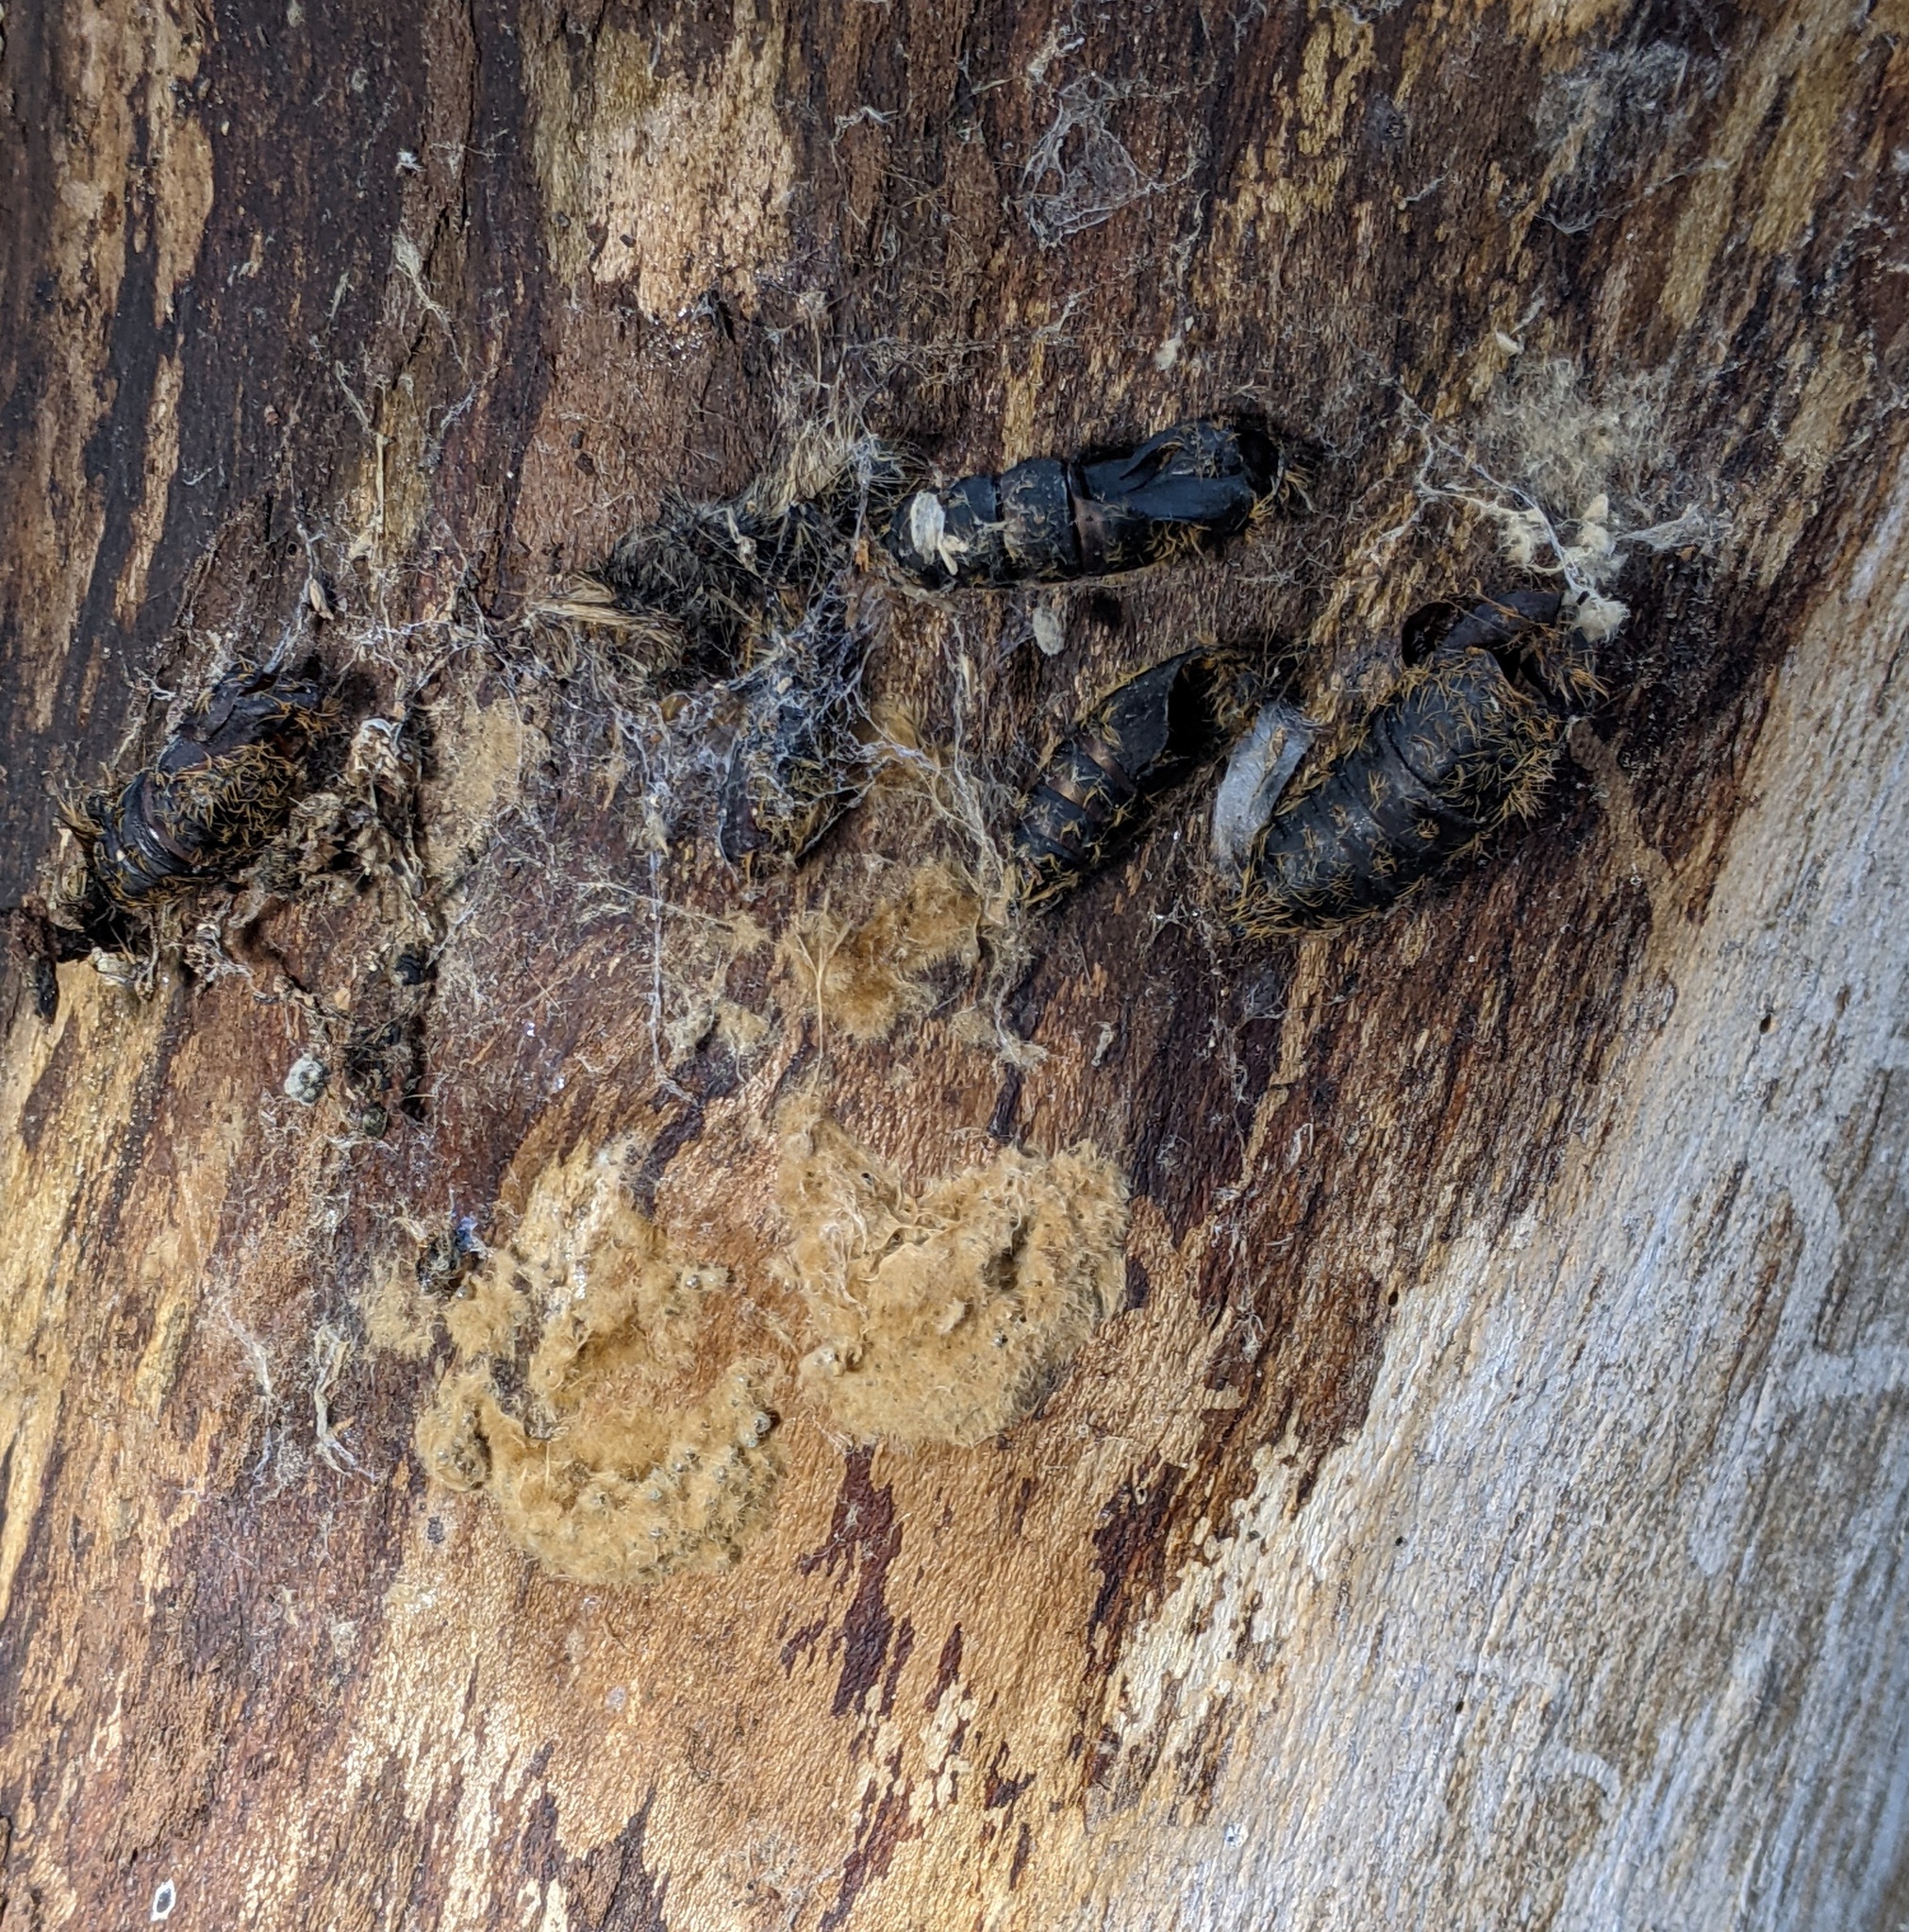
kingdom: Animalia
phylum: Arthropoda
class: Insecta
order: Lepidoptera
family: Erebidae
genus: Lymantria
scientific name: Lymantria dispar
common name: Gypsy moth
